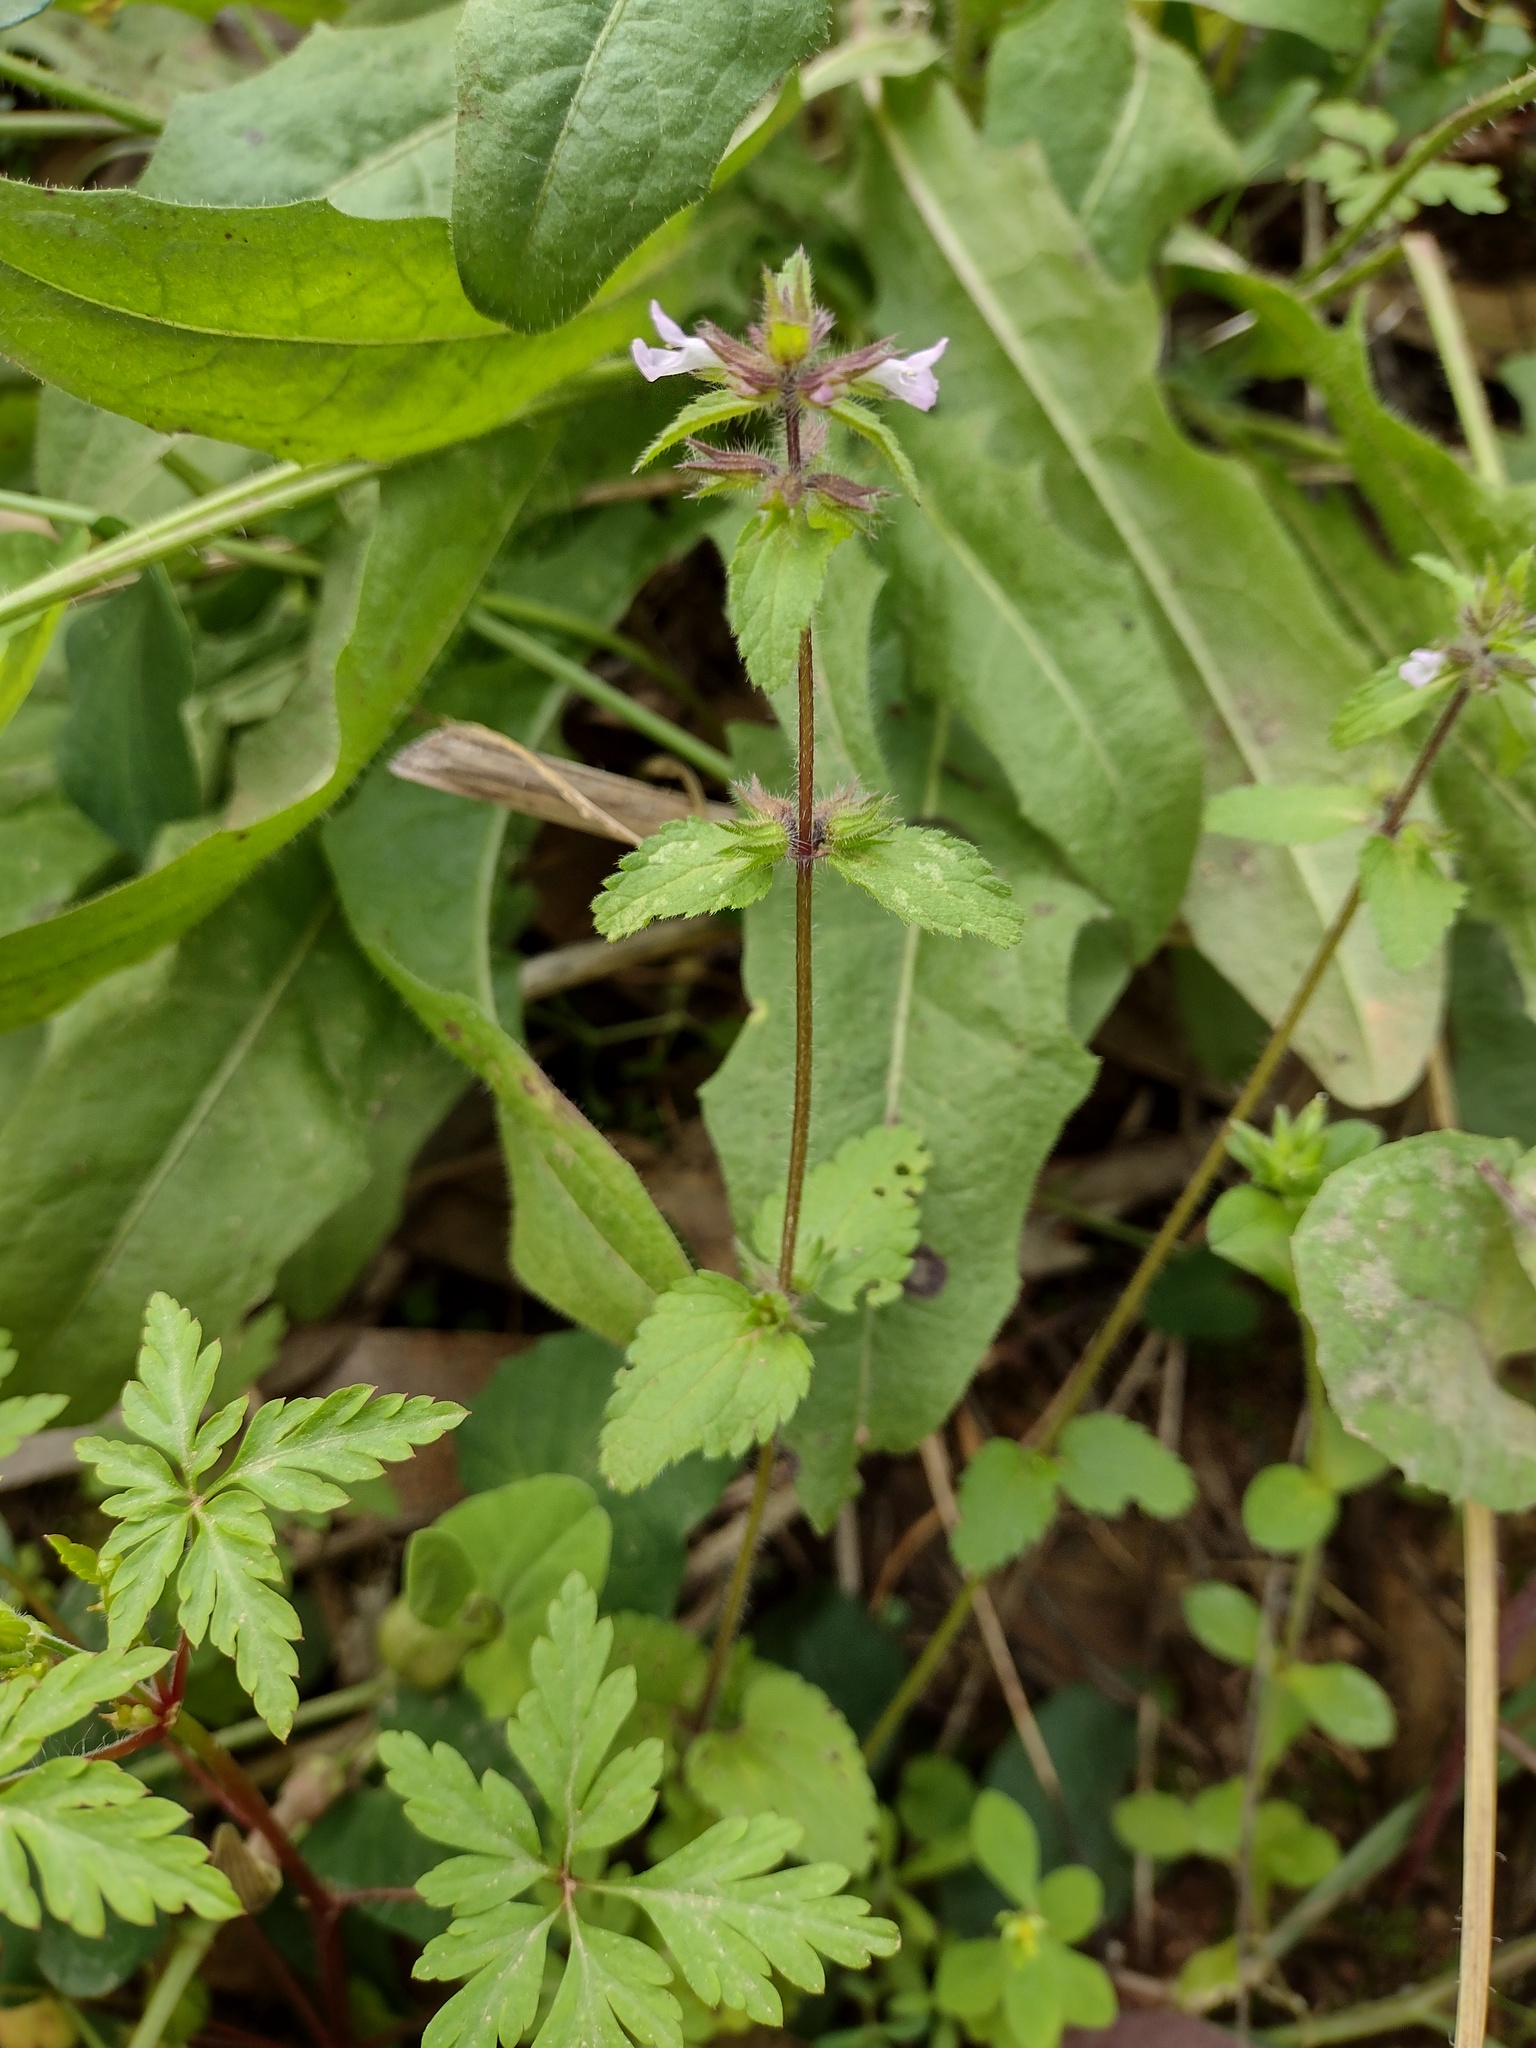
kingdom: Plantae
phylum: Tracheophyta
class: Magnoliopsida
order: Lamiales
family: Lamiaceae
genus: Stachys
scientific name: Stachys arvensis
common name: Field woundwort
